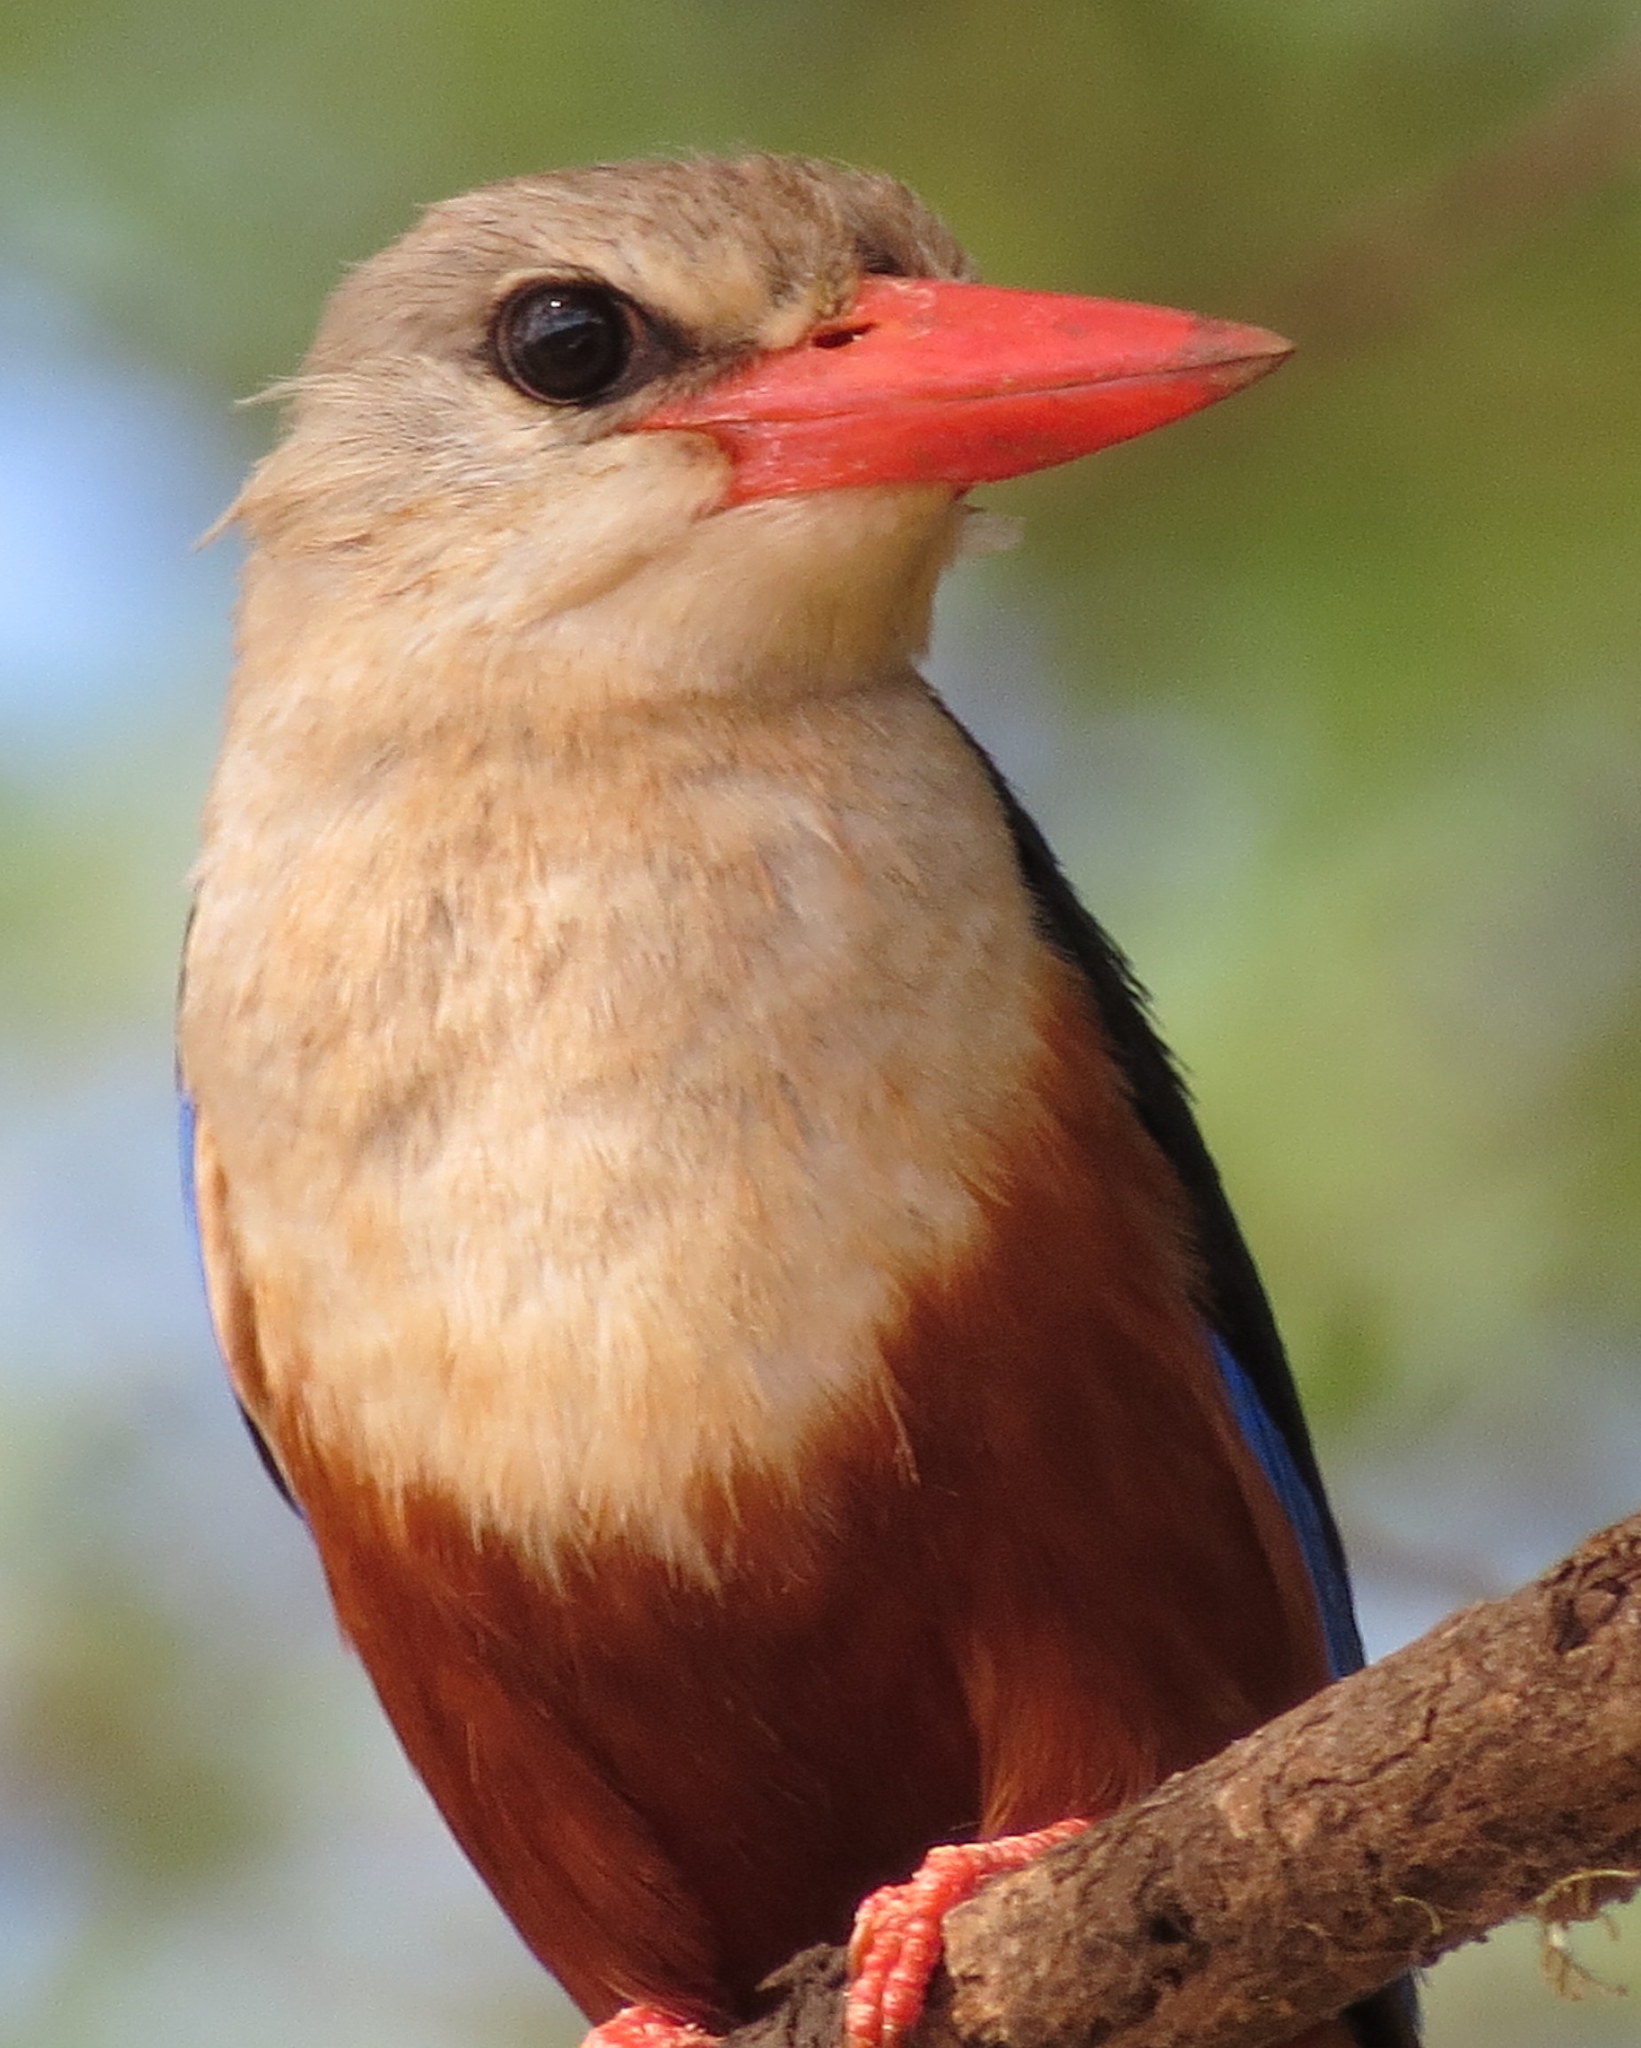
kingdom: Animalia
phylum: Chordata
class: Aves
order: Coraciiformes
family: Alcedinidae
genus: Halcyon
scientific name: Halcyon leucocephala
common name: Grey-headed kingfisher
